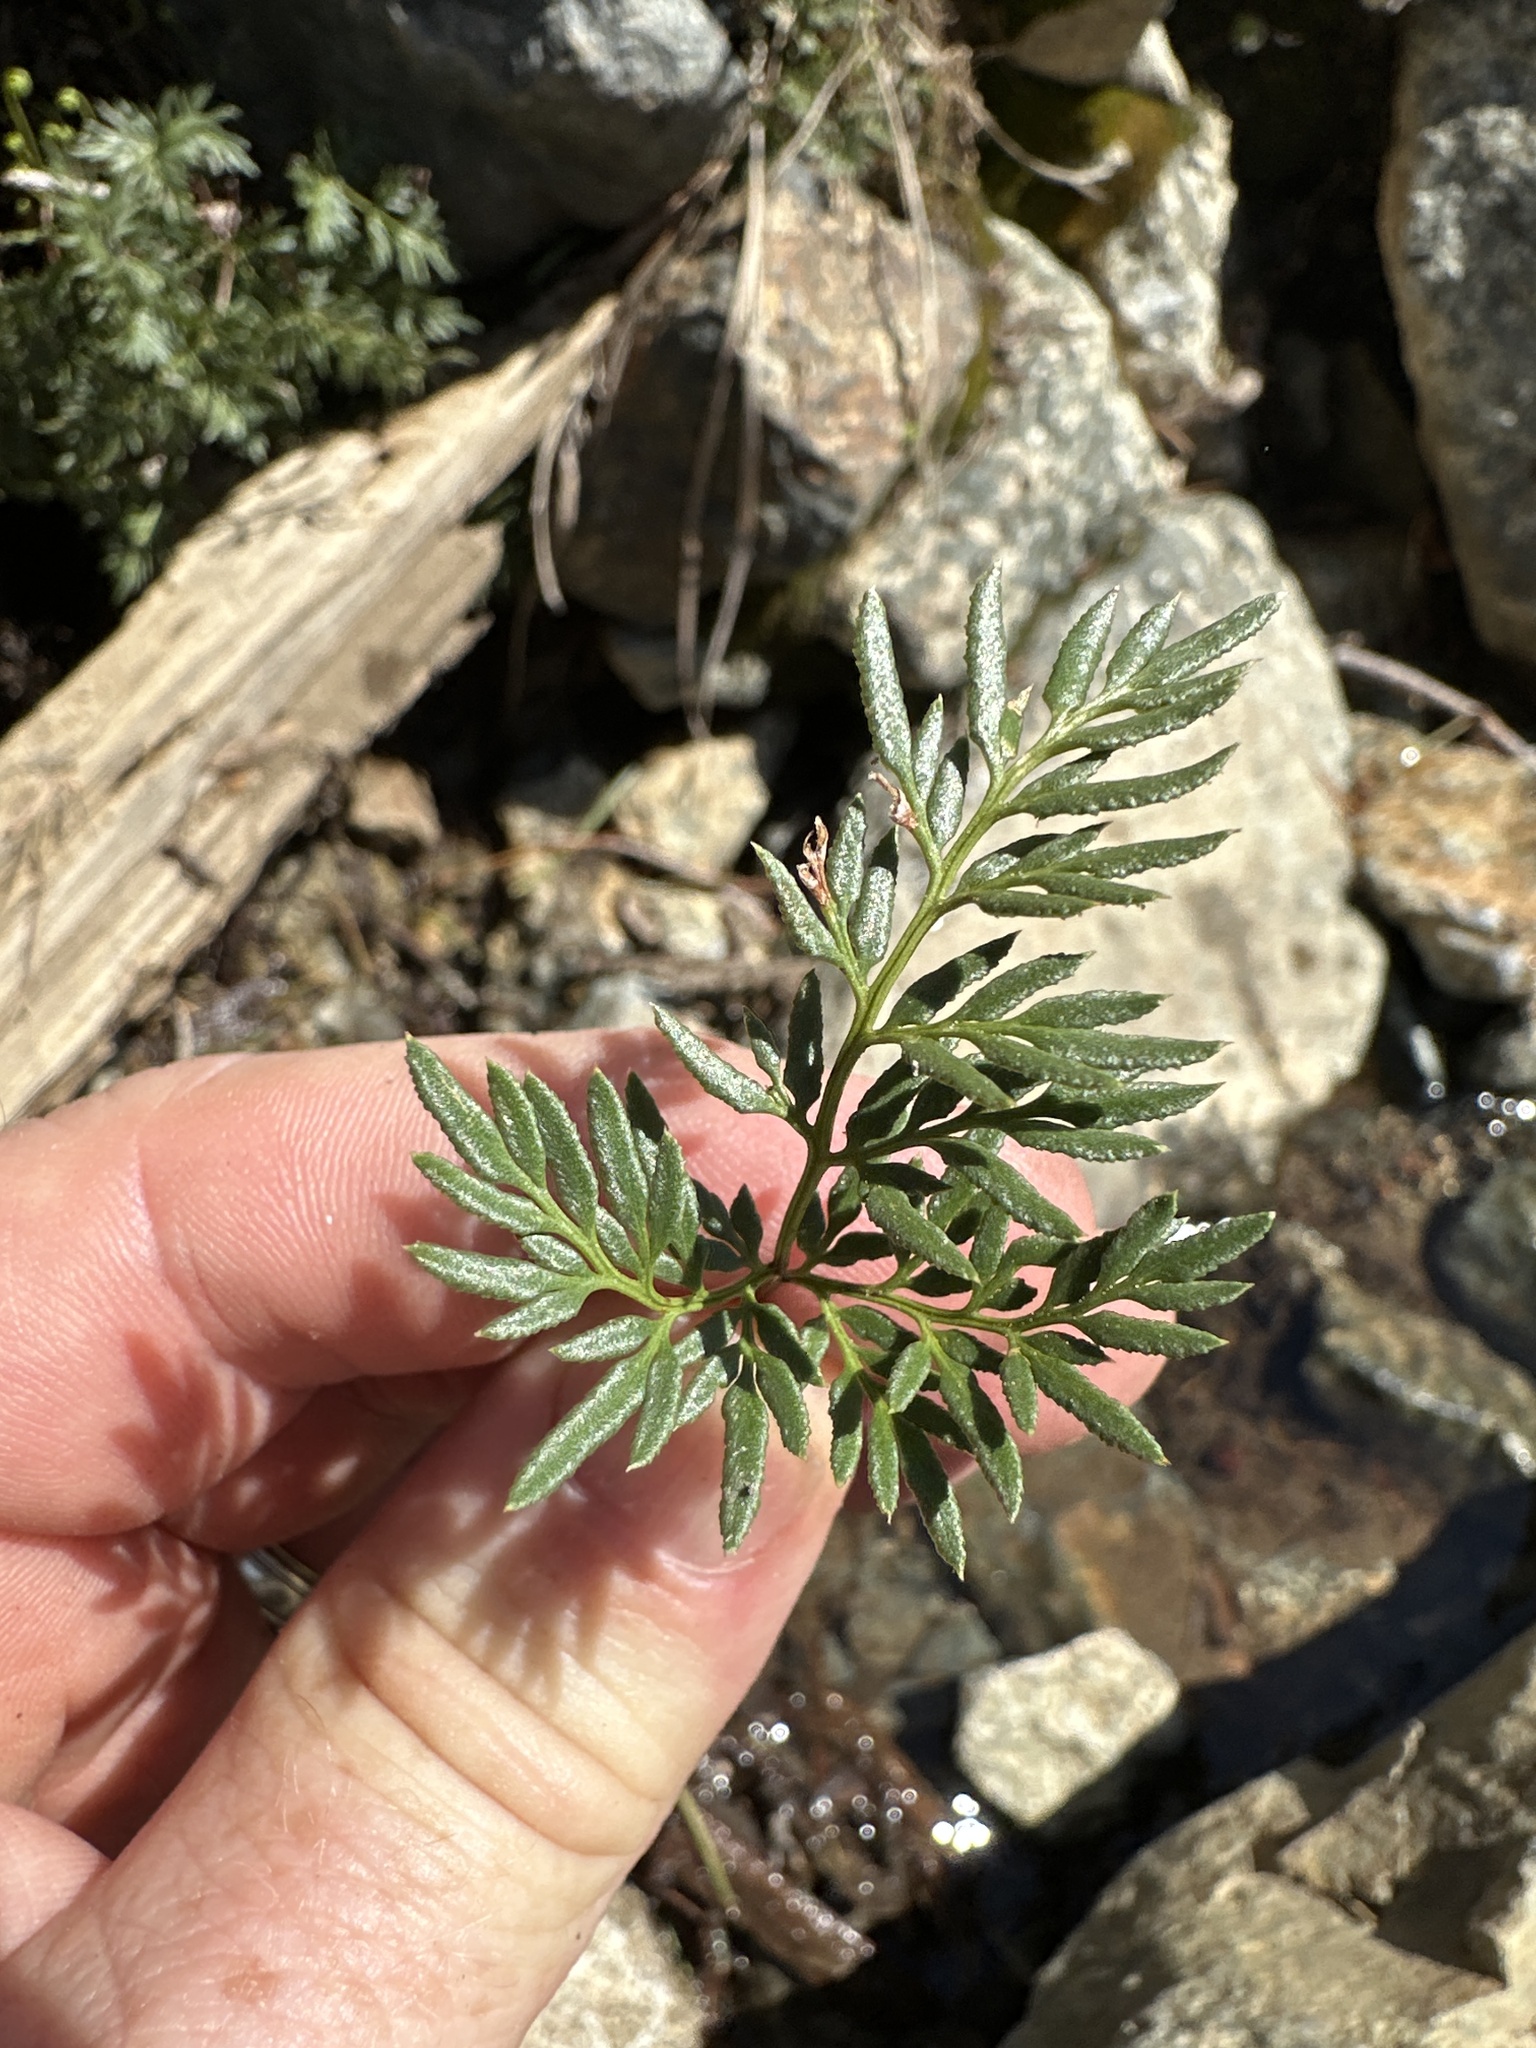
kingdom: Plantae
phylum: Tracheophyta
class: Polypodiopsida
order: Polypodiales
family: Pteridaceae
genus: Aspidotis
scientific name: Aspidotis densa
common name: Indian's dream
